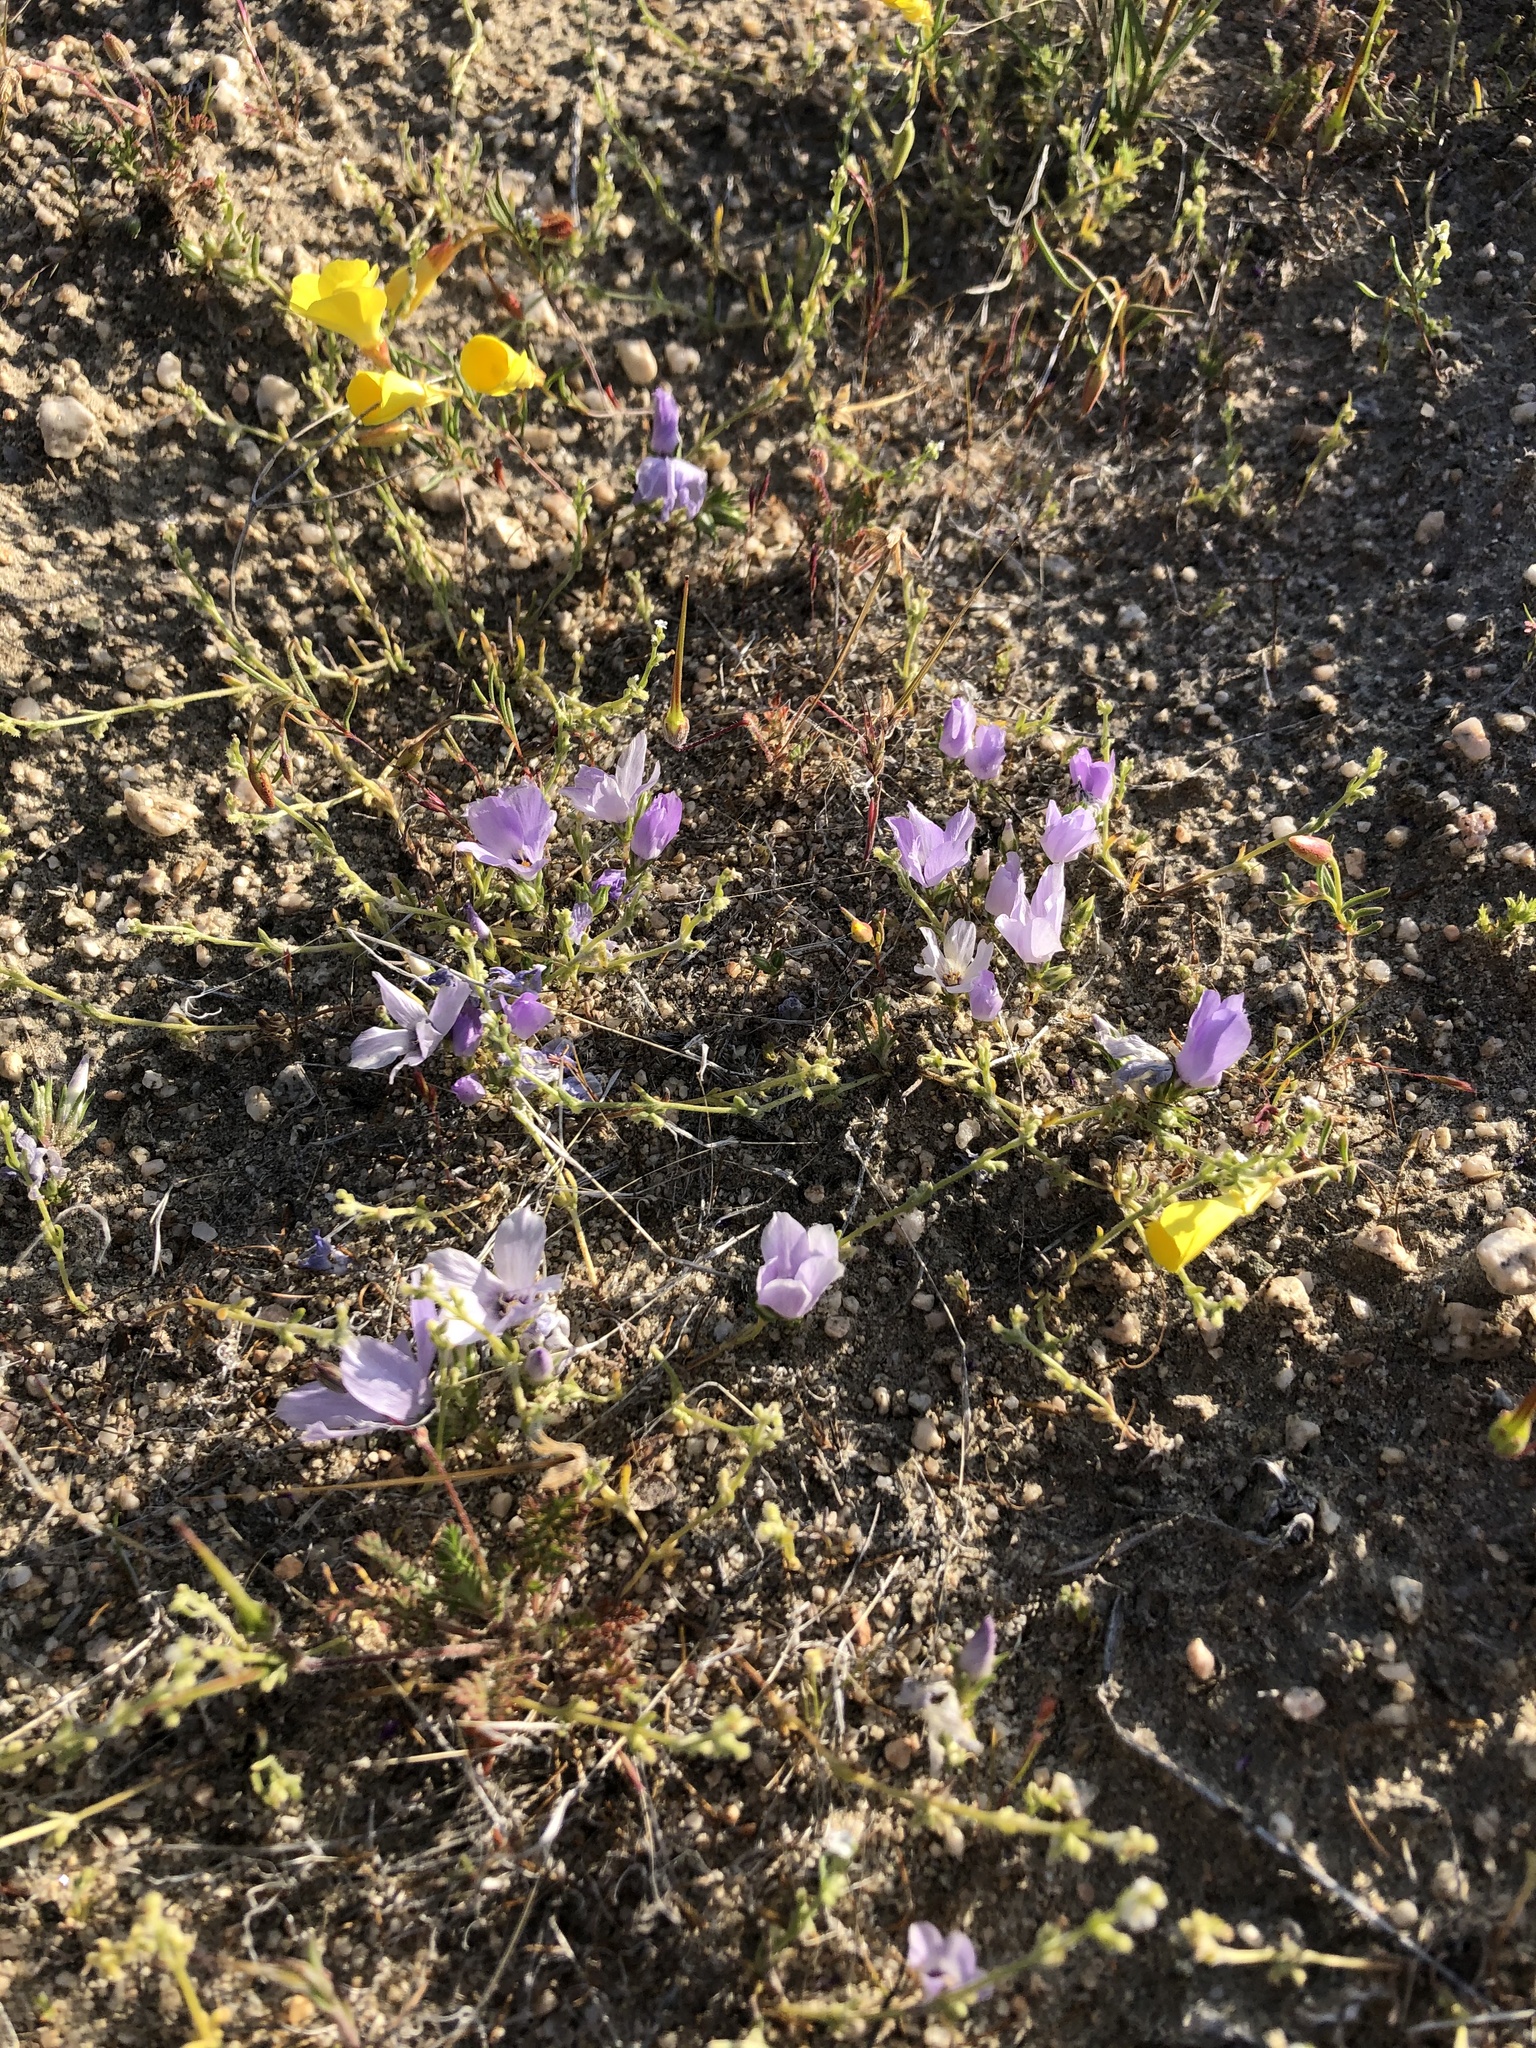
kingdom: Plantae
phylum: Tracheophyta
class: Magnoliopsida
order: Ericales
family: Polemoniaceae
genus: Linanthus
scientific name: Linanthus parryae
